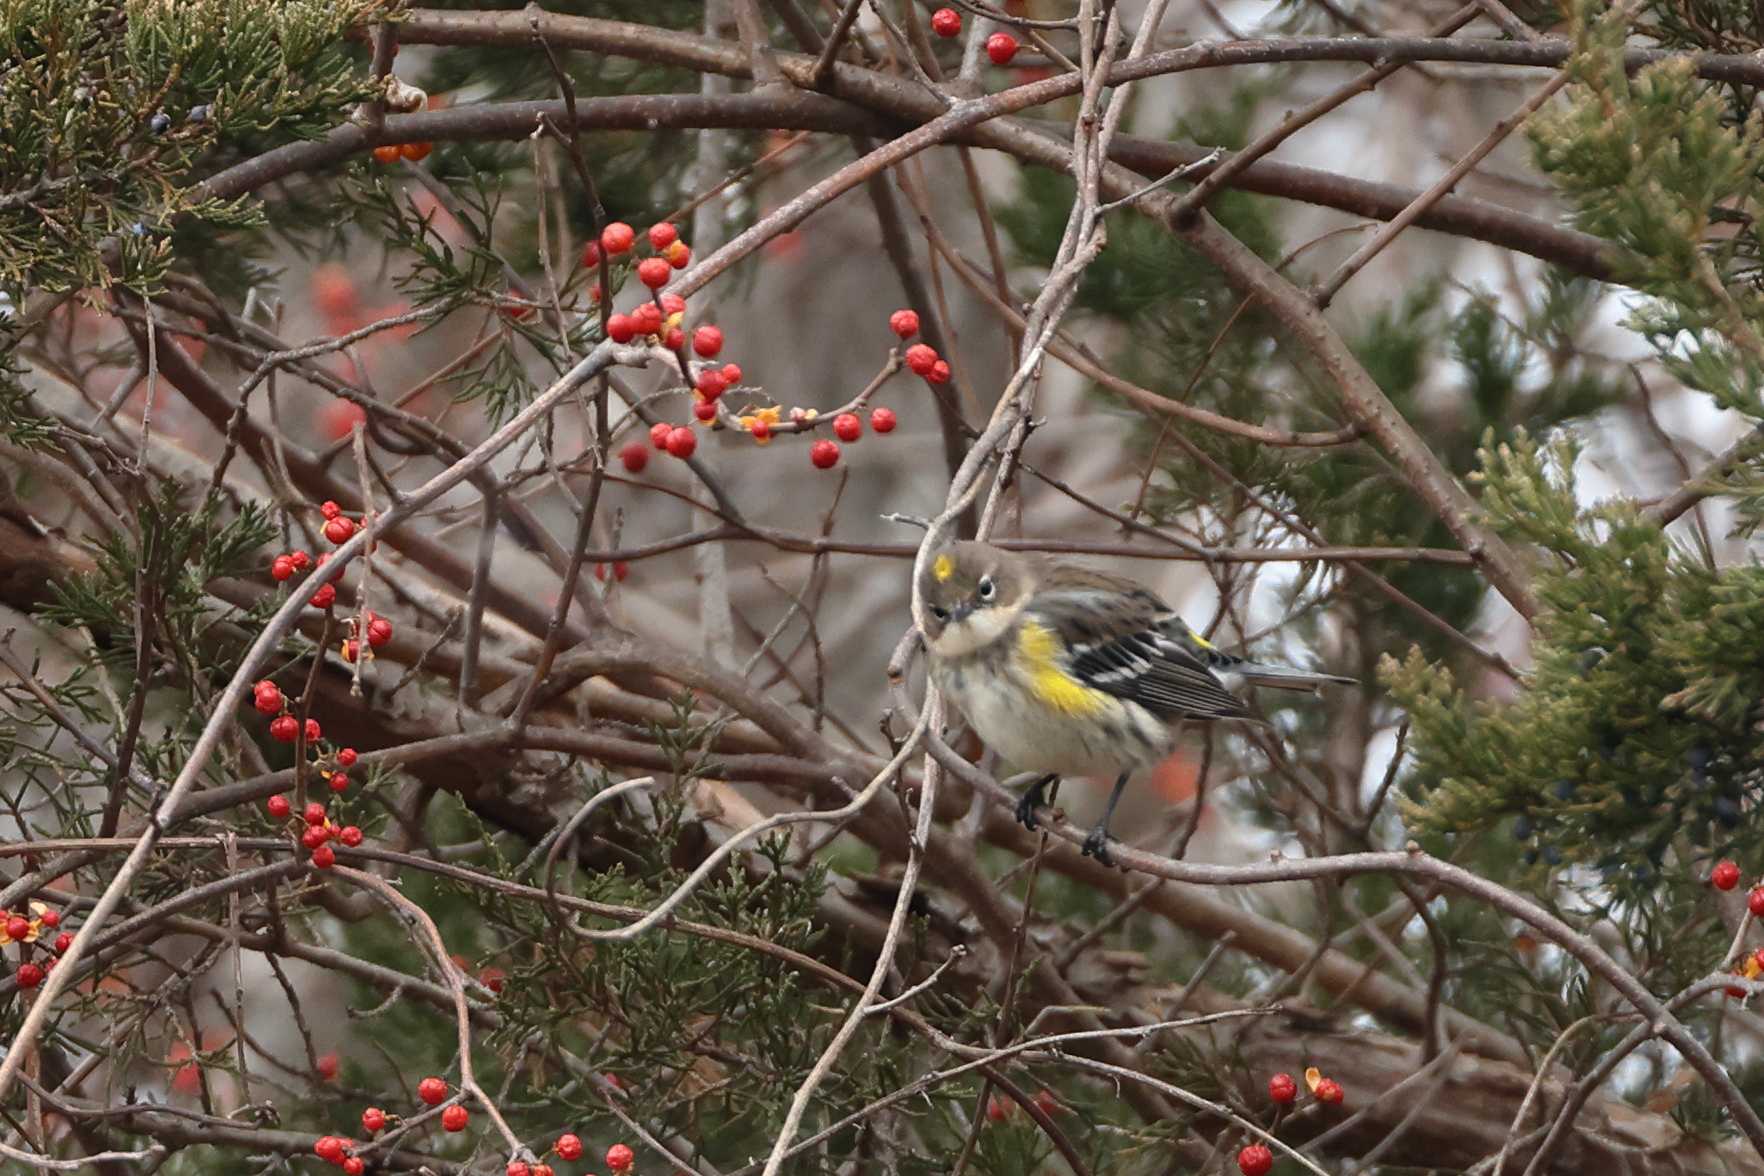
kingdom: Animalia
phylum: Chordata
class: Aves
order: Passeriformes
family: Parulidae
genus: Setophaga
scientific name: Setophaga coronata
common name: Myrtle warbler
